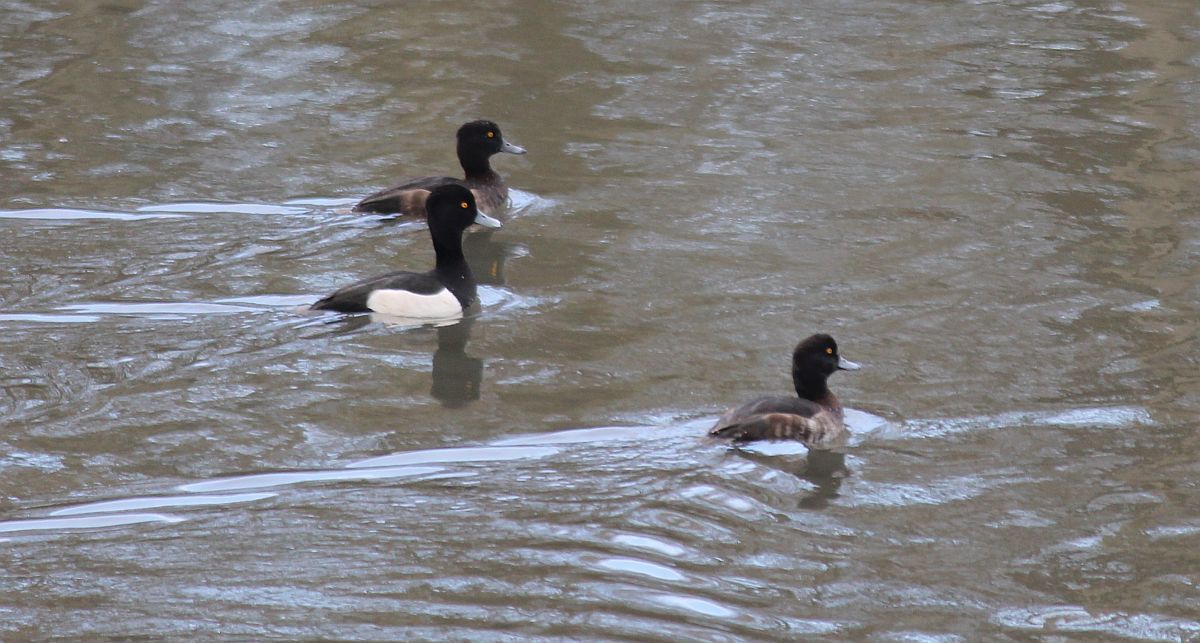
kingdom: Animalia
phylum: Chordata
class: Aves
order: Anseriformes
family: Anatidae
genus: Aythya
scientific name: Aythya fuligula
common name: Tufted duck
